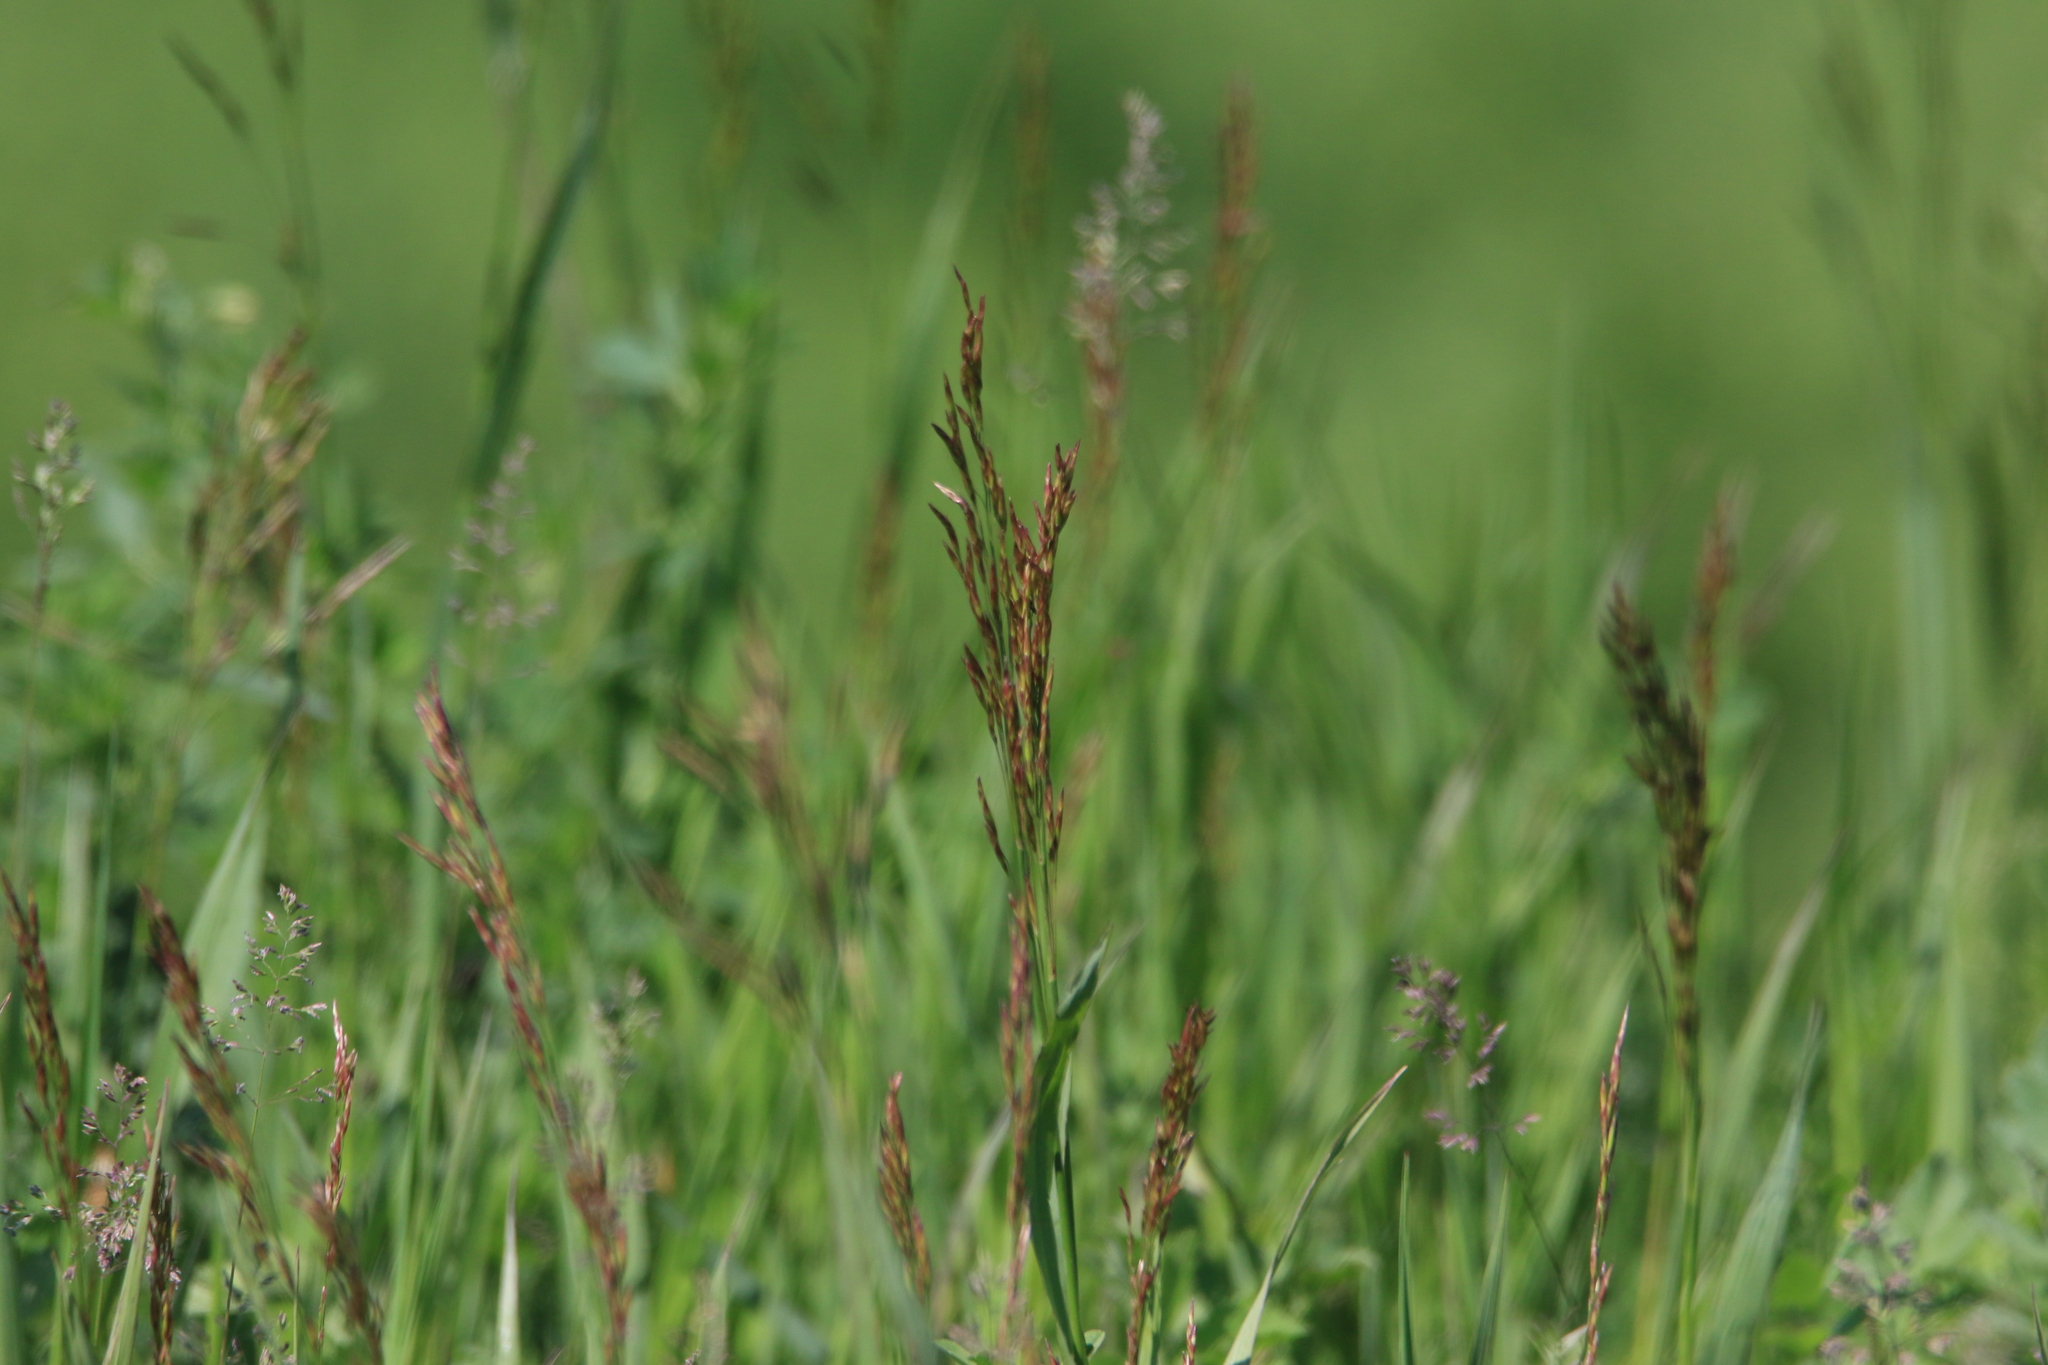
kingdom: Plantae
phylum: Tracheophyta
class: Liliopsida
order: Poales
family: Poaceae
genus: Bromus
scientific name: Bromus inermis
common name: Smooth brome
